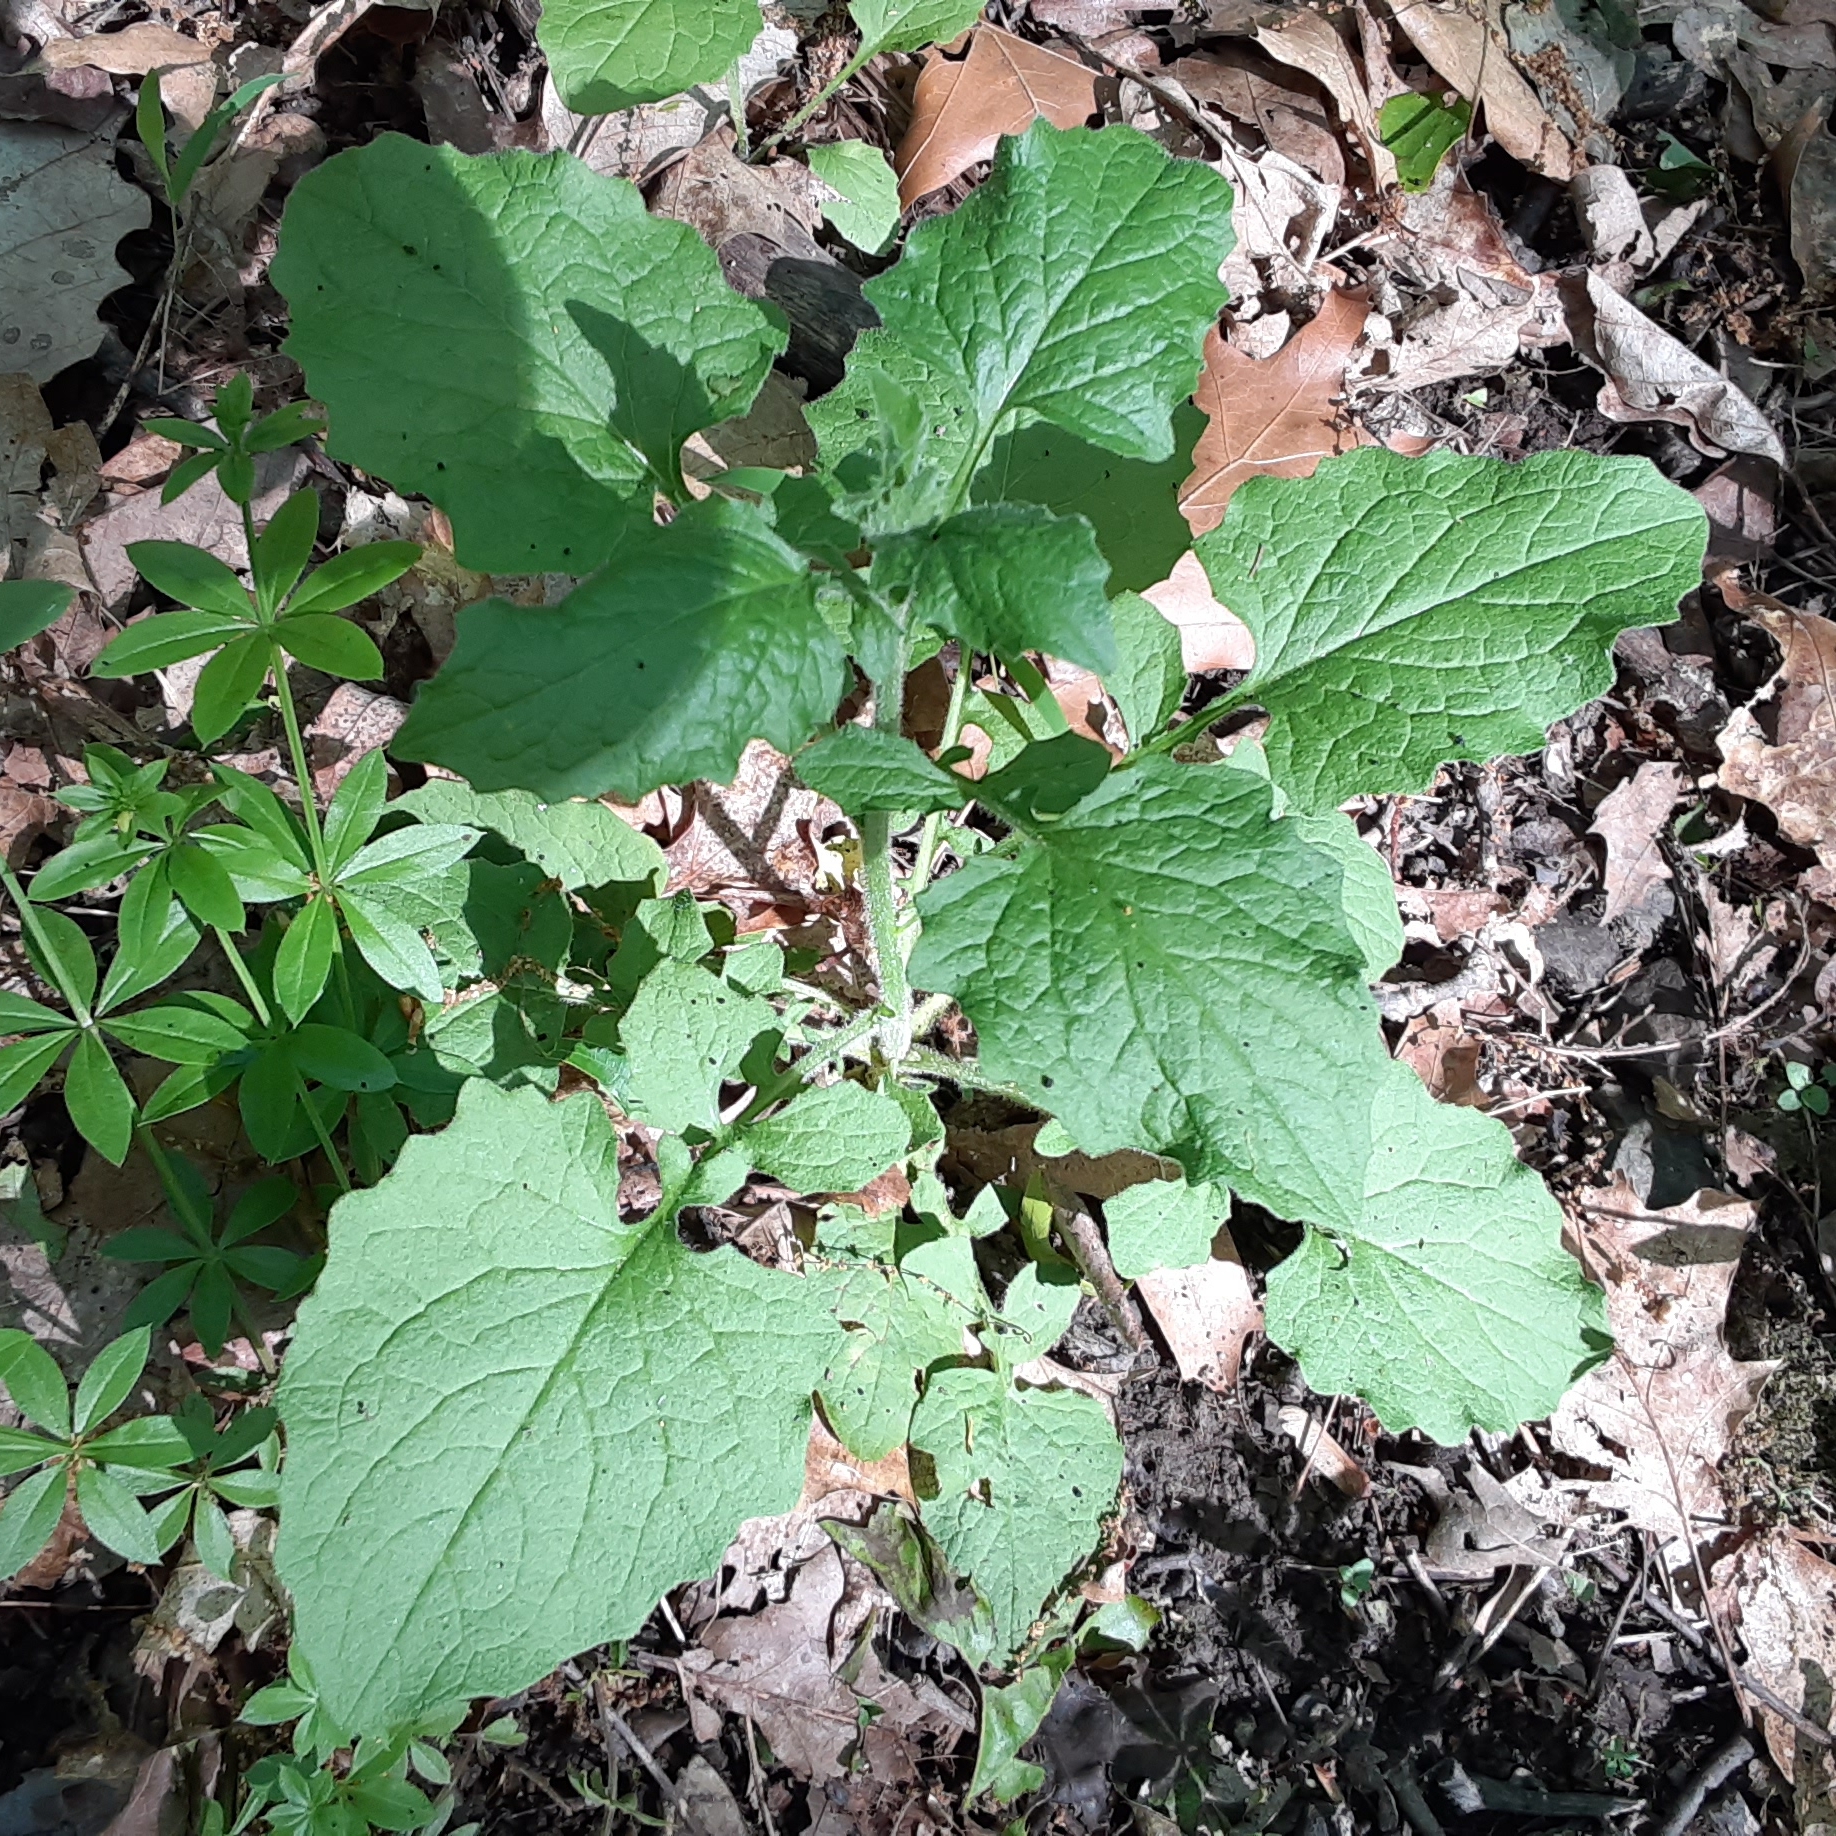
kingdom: Plantae
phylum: Tracheophyta
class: Magnoliopsida
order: Asterales
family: Asteraceae
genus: Lapsana
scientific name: Lapsana communis
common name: Nipplewort
